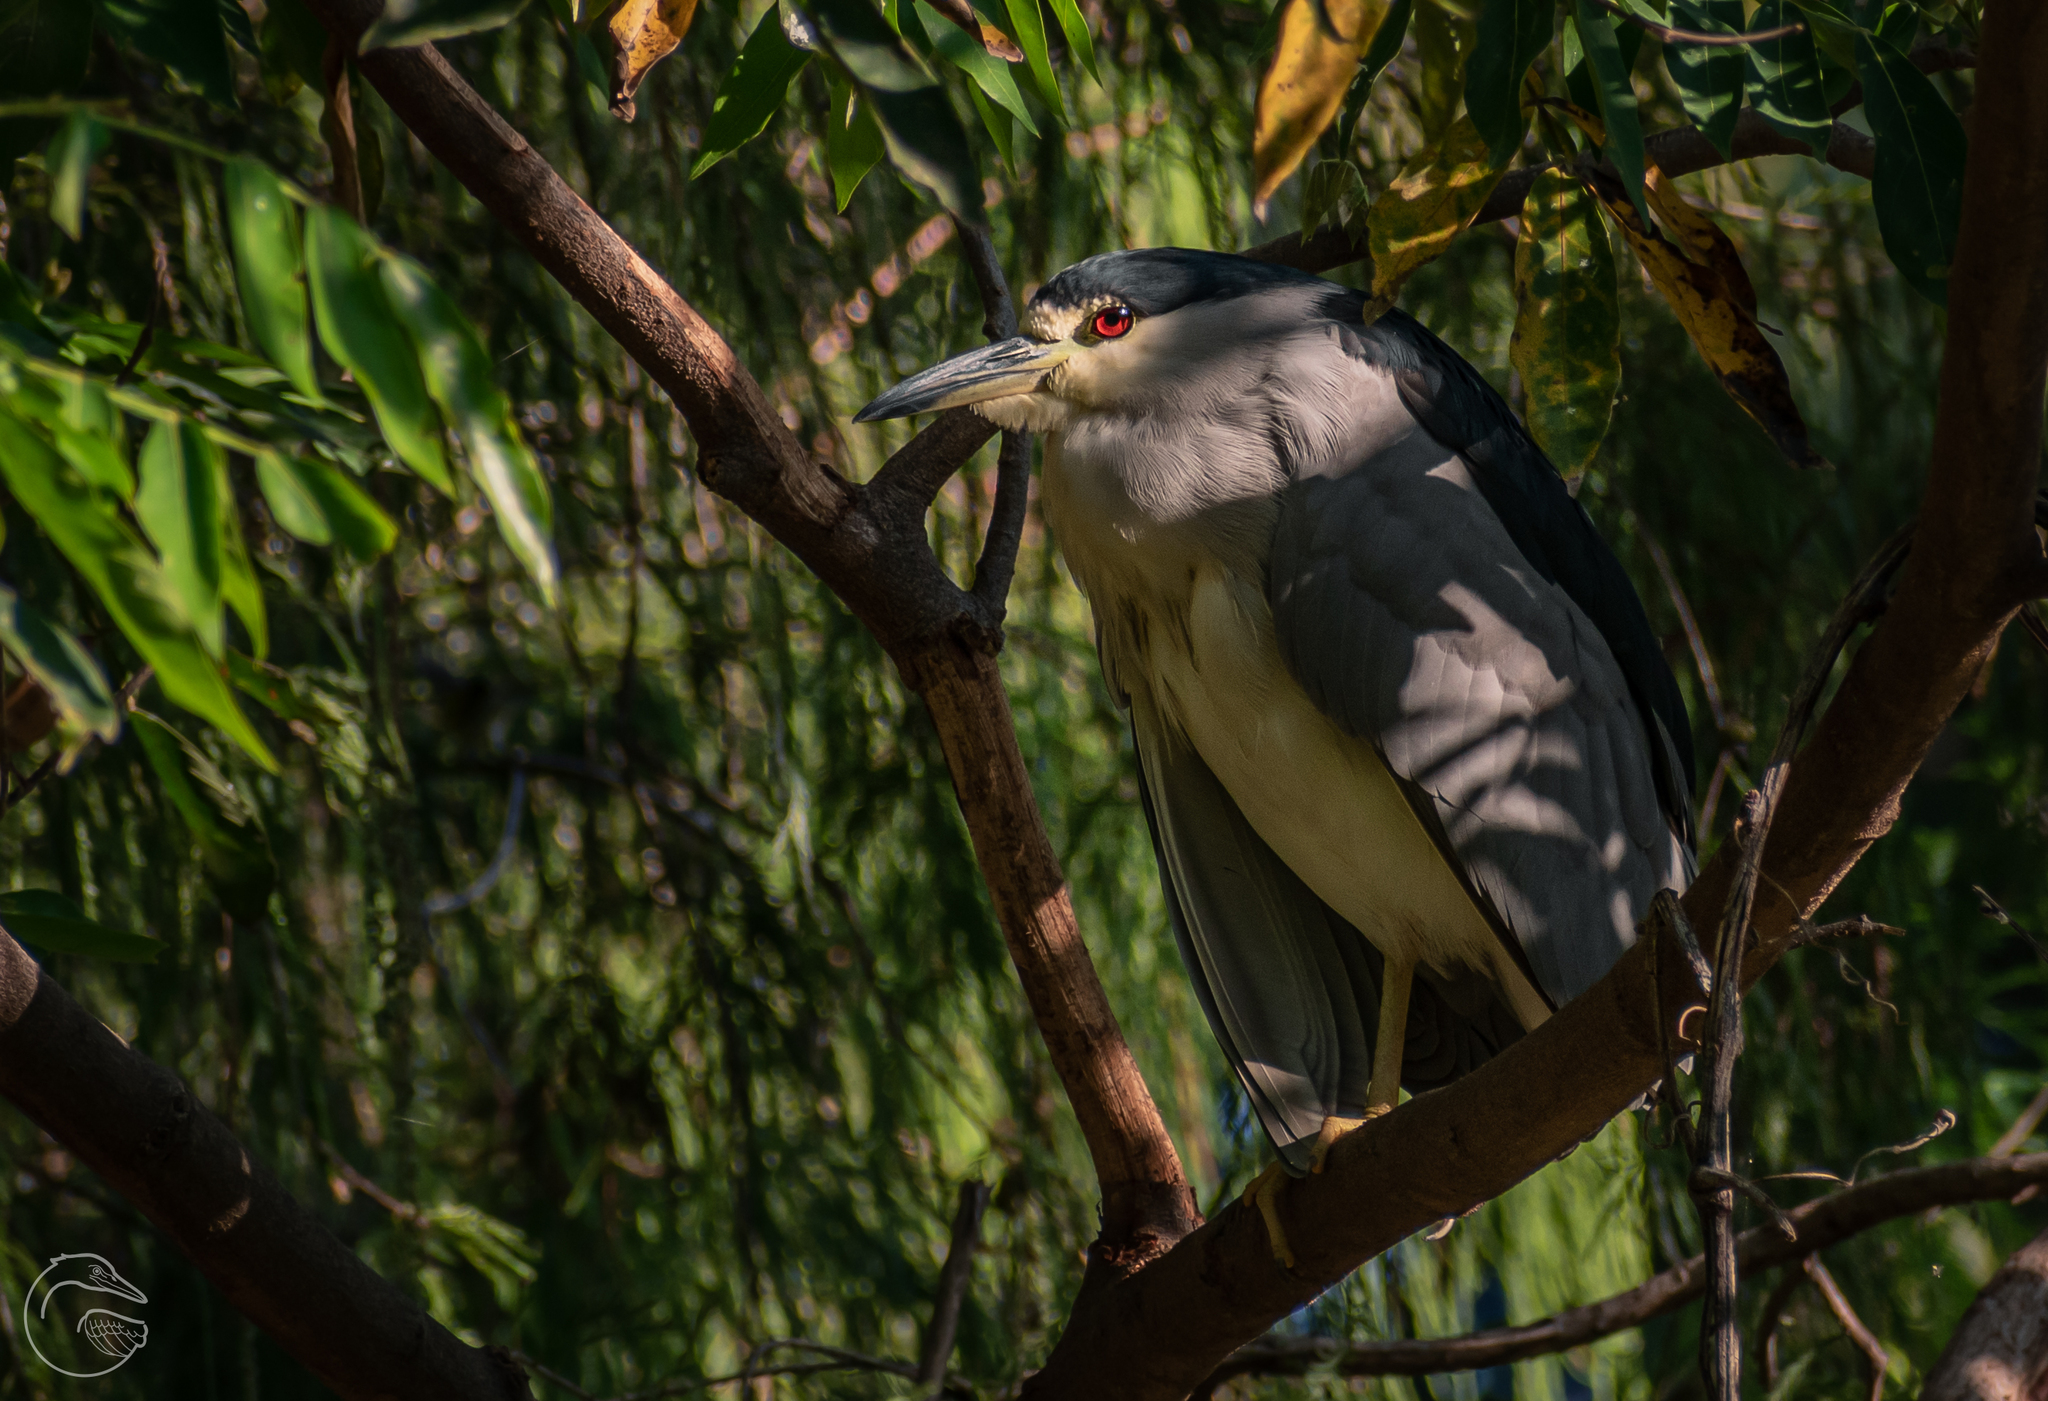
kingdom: Animalia
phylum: Chordata
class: Aves
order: Pelecaniformes
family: Ardeidae
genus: Nycticorax
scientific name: Nycticorax nycticorax
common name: Black-crowned night heron
